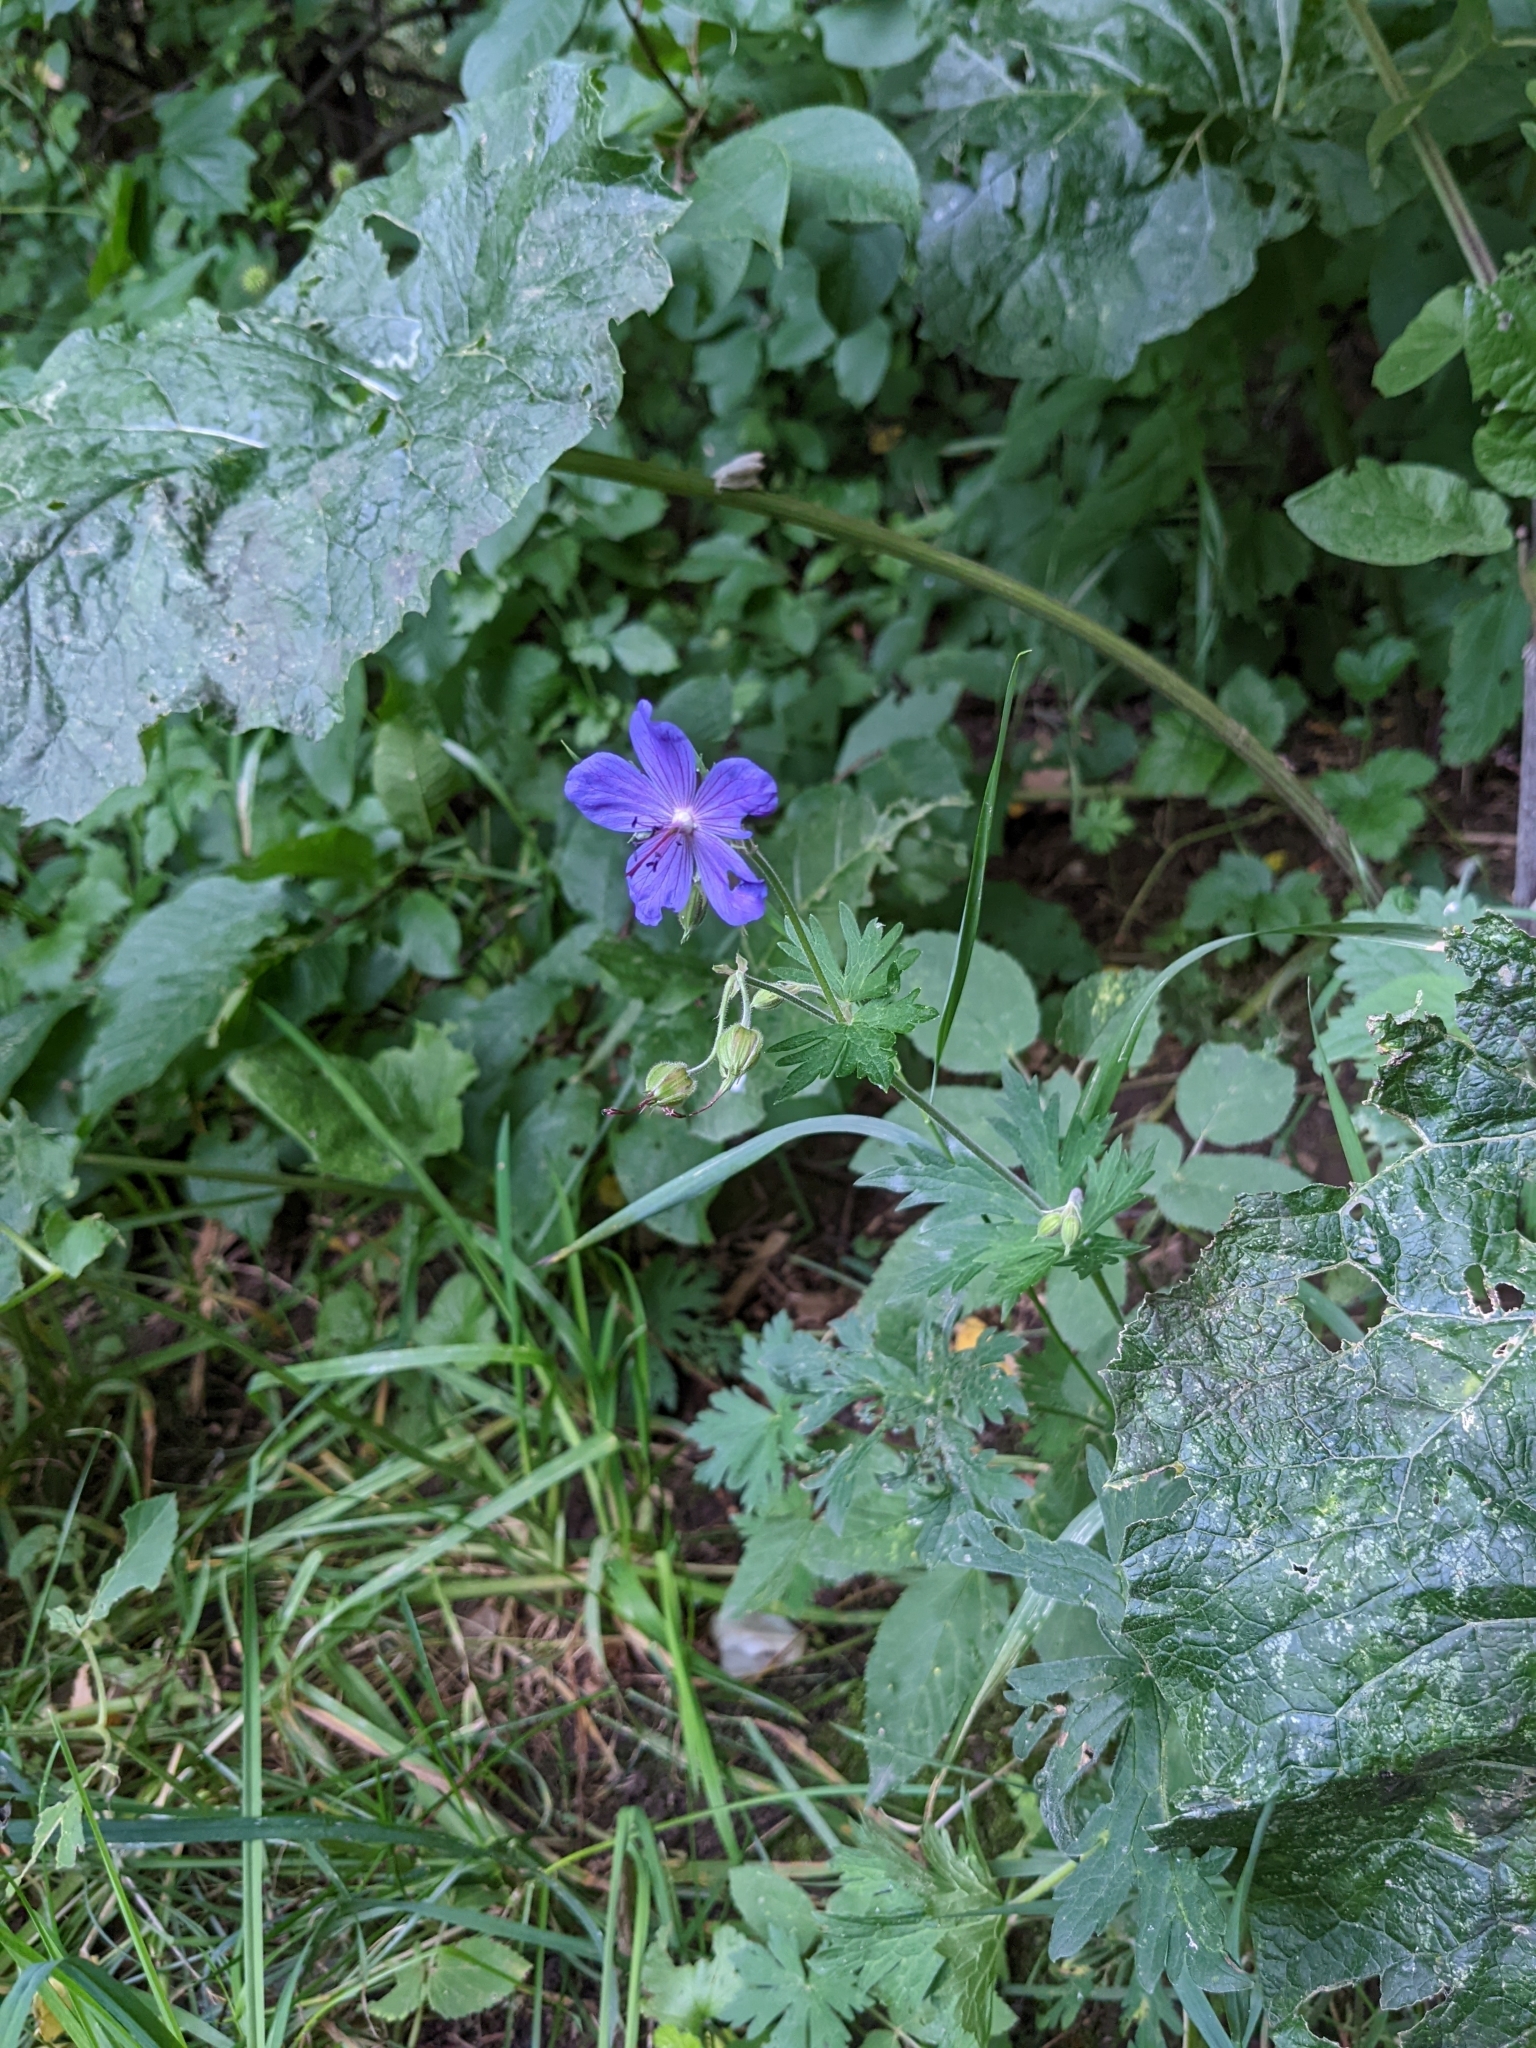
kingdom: Plantae
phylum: Tracheophyta
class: Magnoliopsida
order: Geraniales
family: Geraniaceae
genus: Geranium
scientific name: Geranium pratense
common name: Meadow crane's-bill
